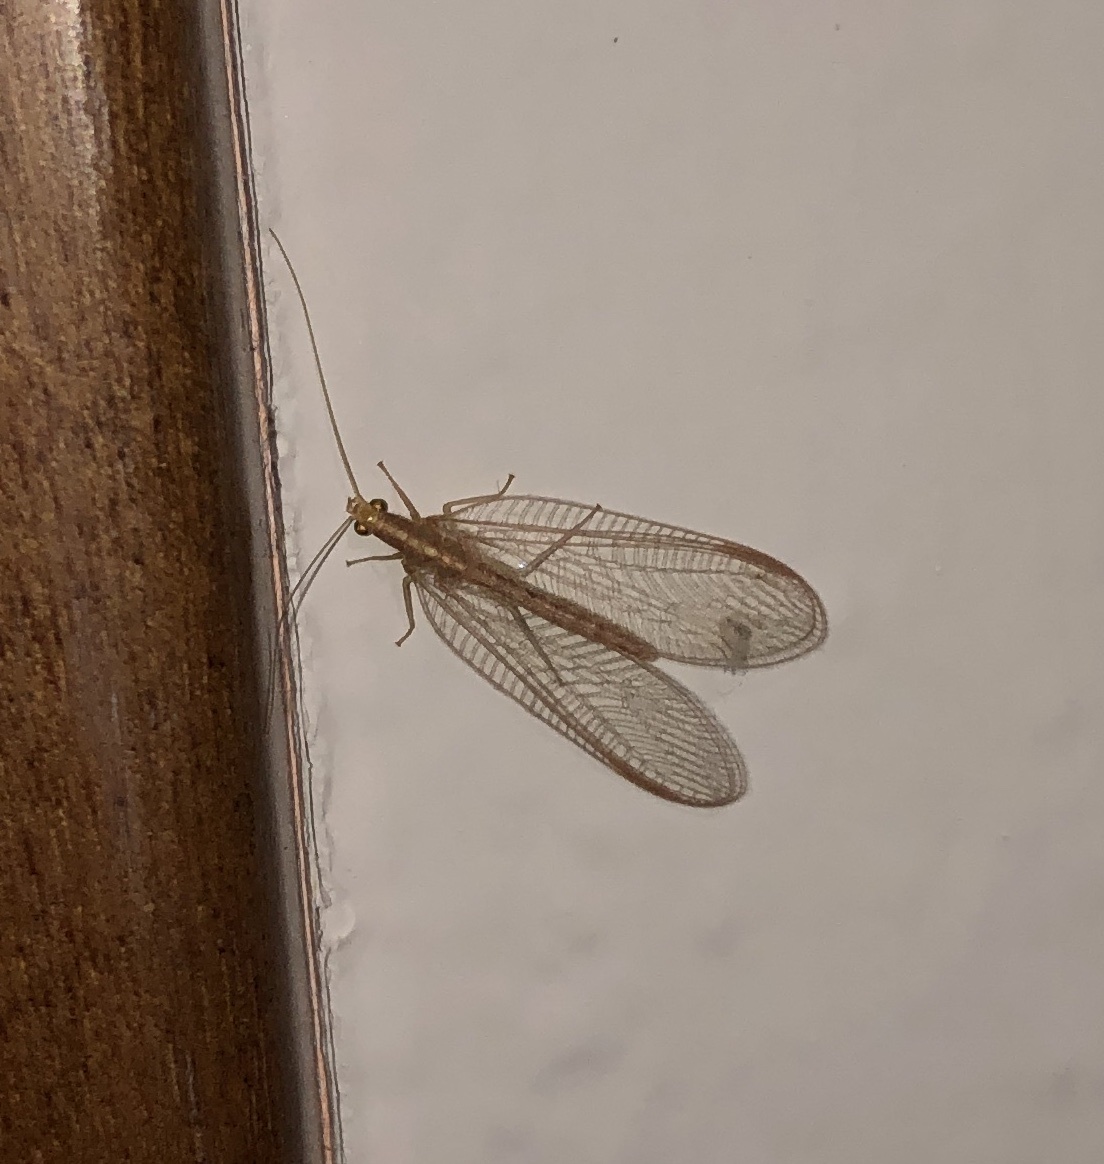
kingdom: Animalia
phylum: Arthropoda
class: Insecta
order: Neuroptera
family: Chrysopidae
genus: Chrysoperla
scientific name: Chrysoperla
